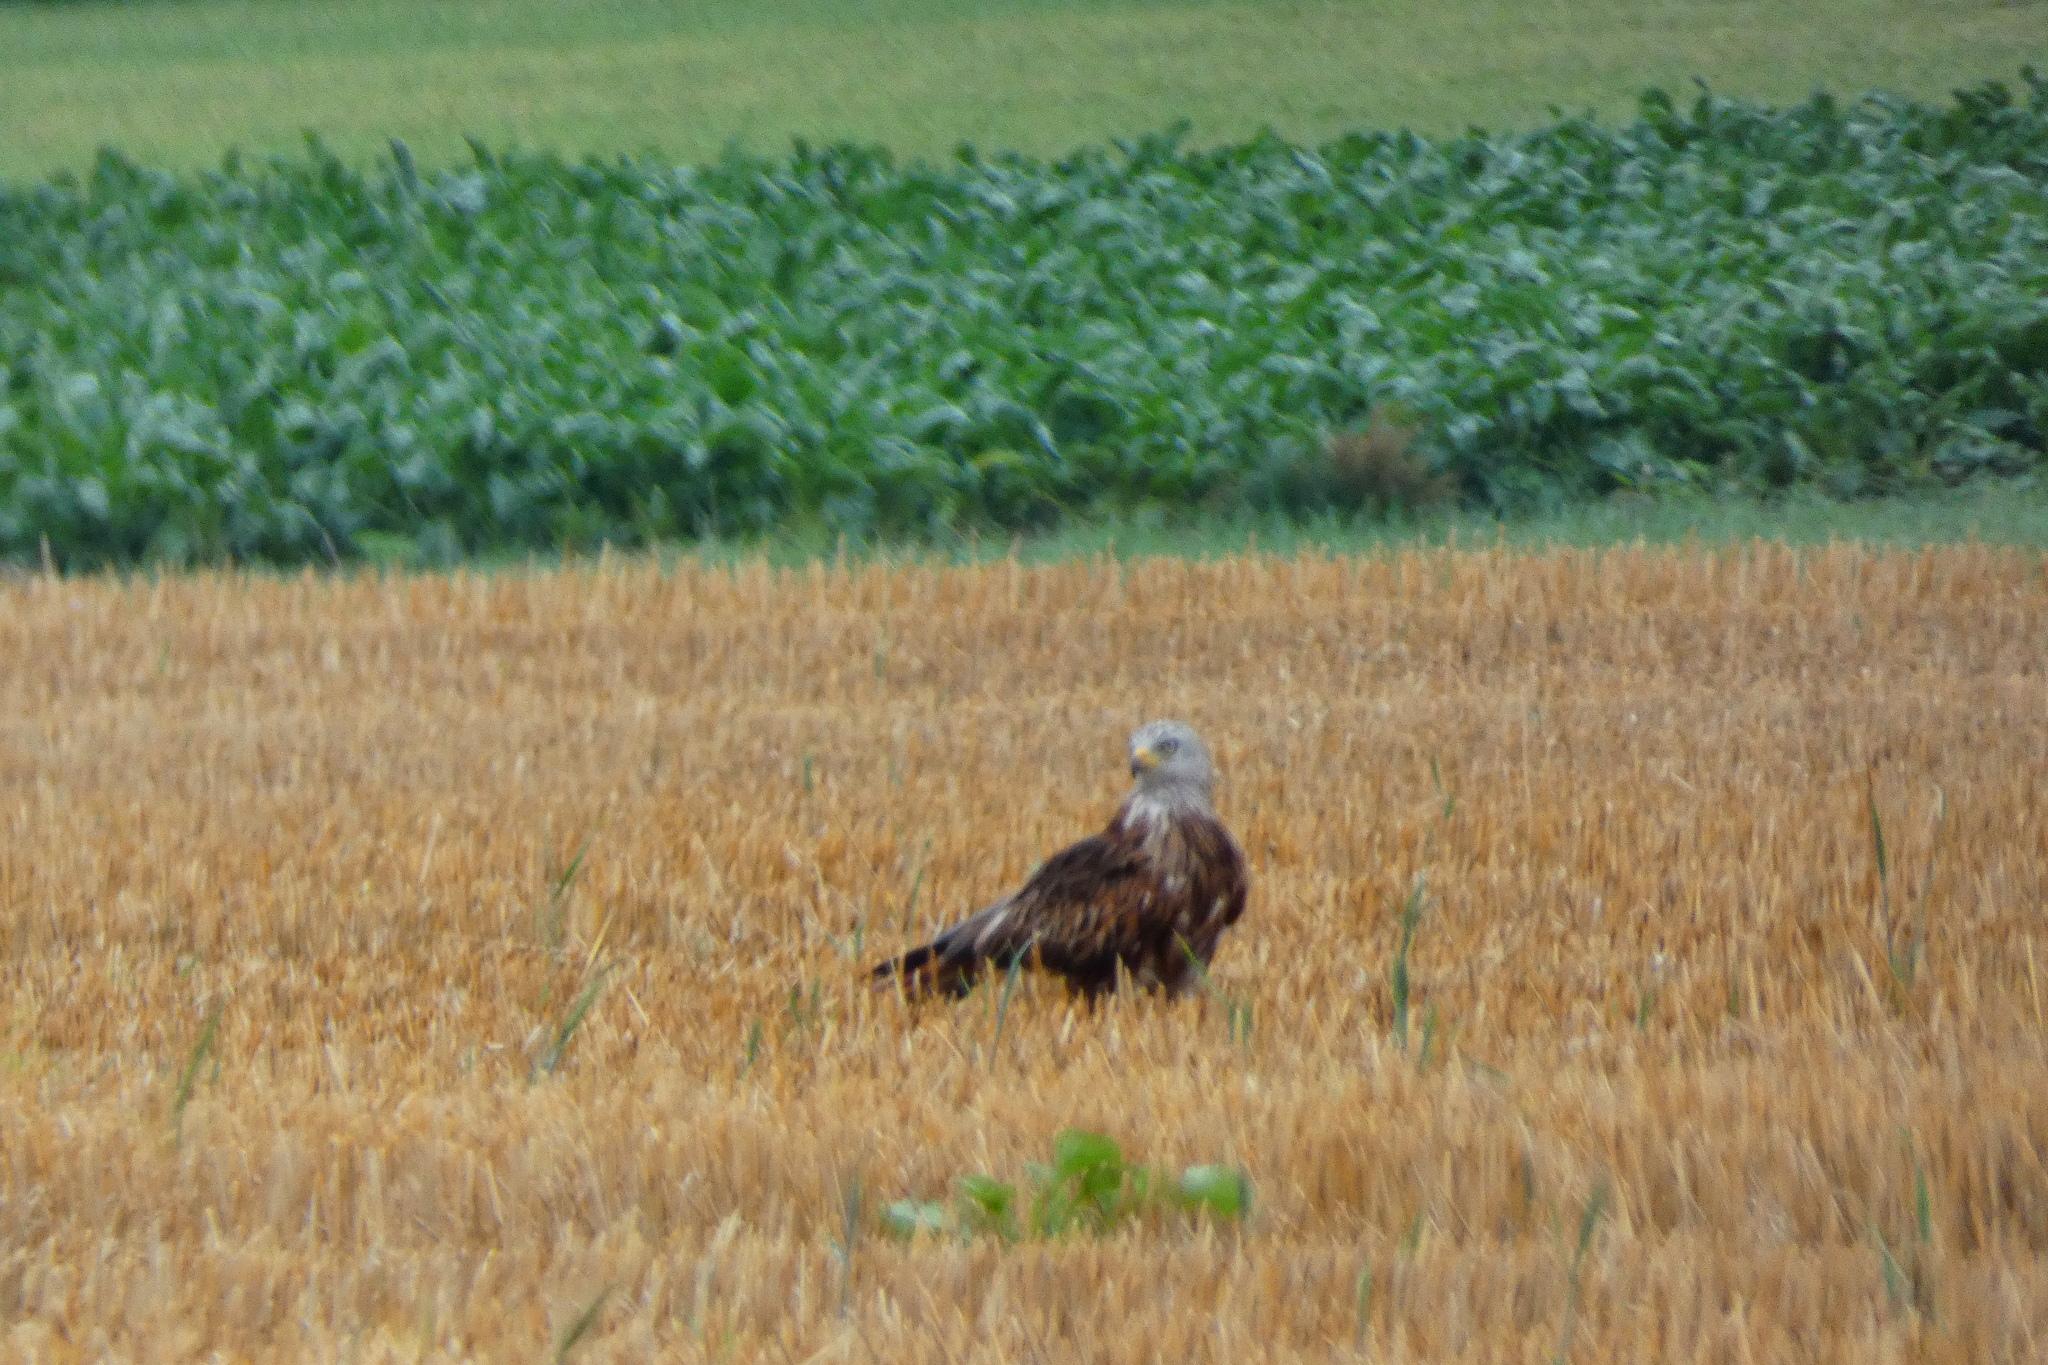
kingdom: Animalia
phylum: Chordata
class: Aves
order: Accipitriformes
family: Accipitridae
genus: Milvus
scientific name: Milvus milvus
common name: Red kite
